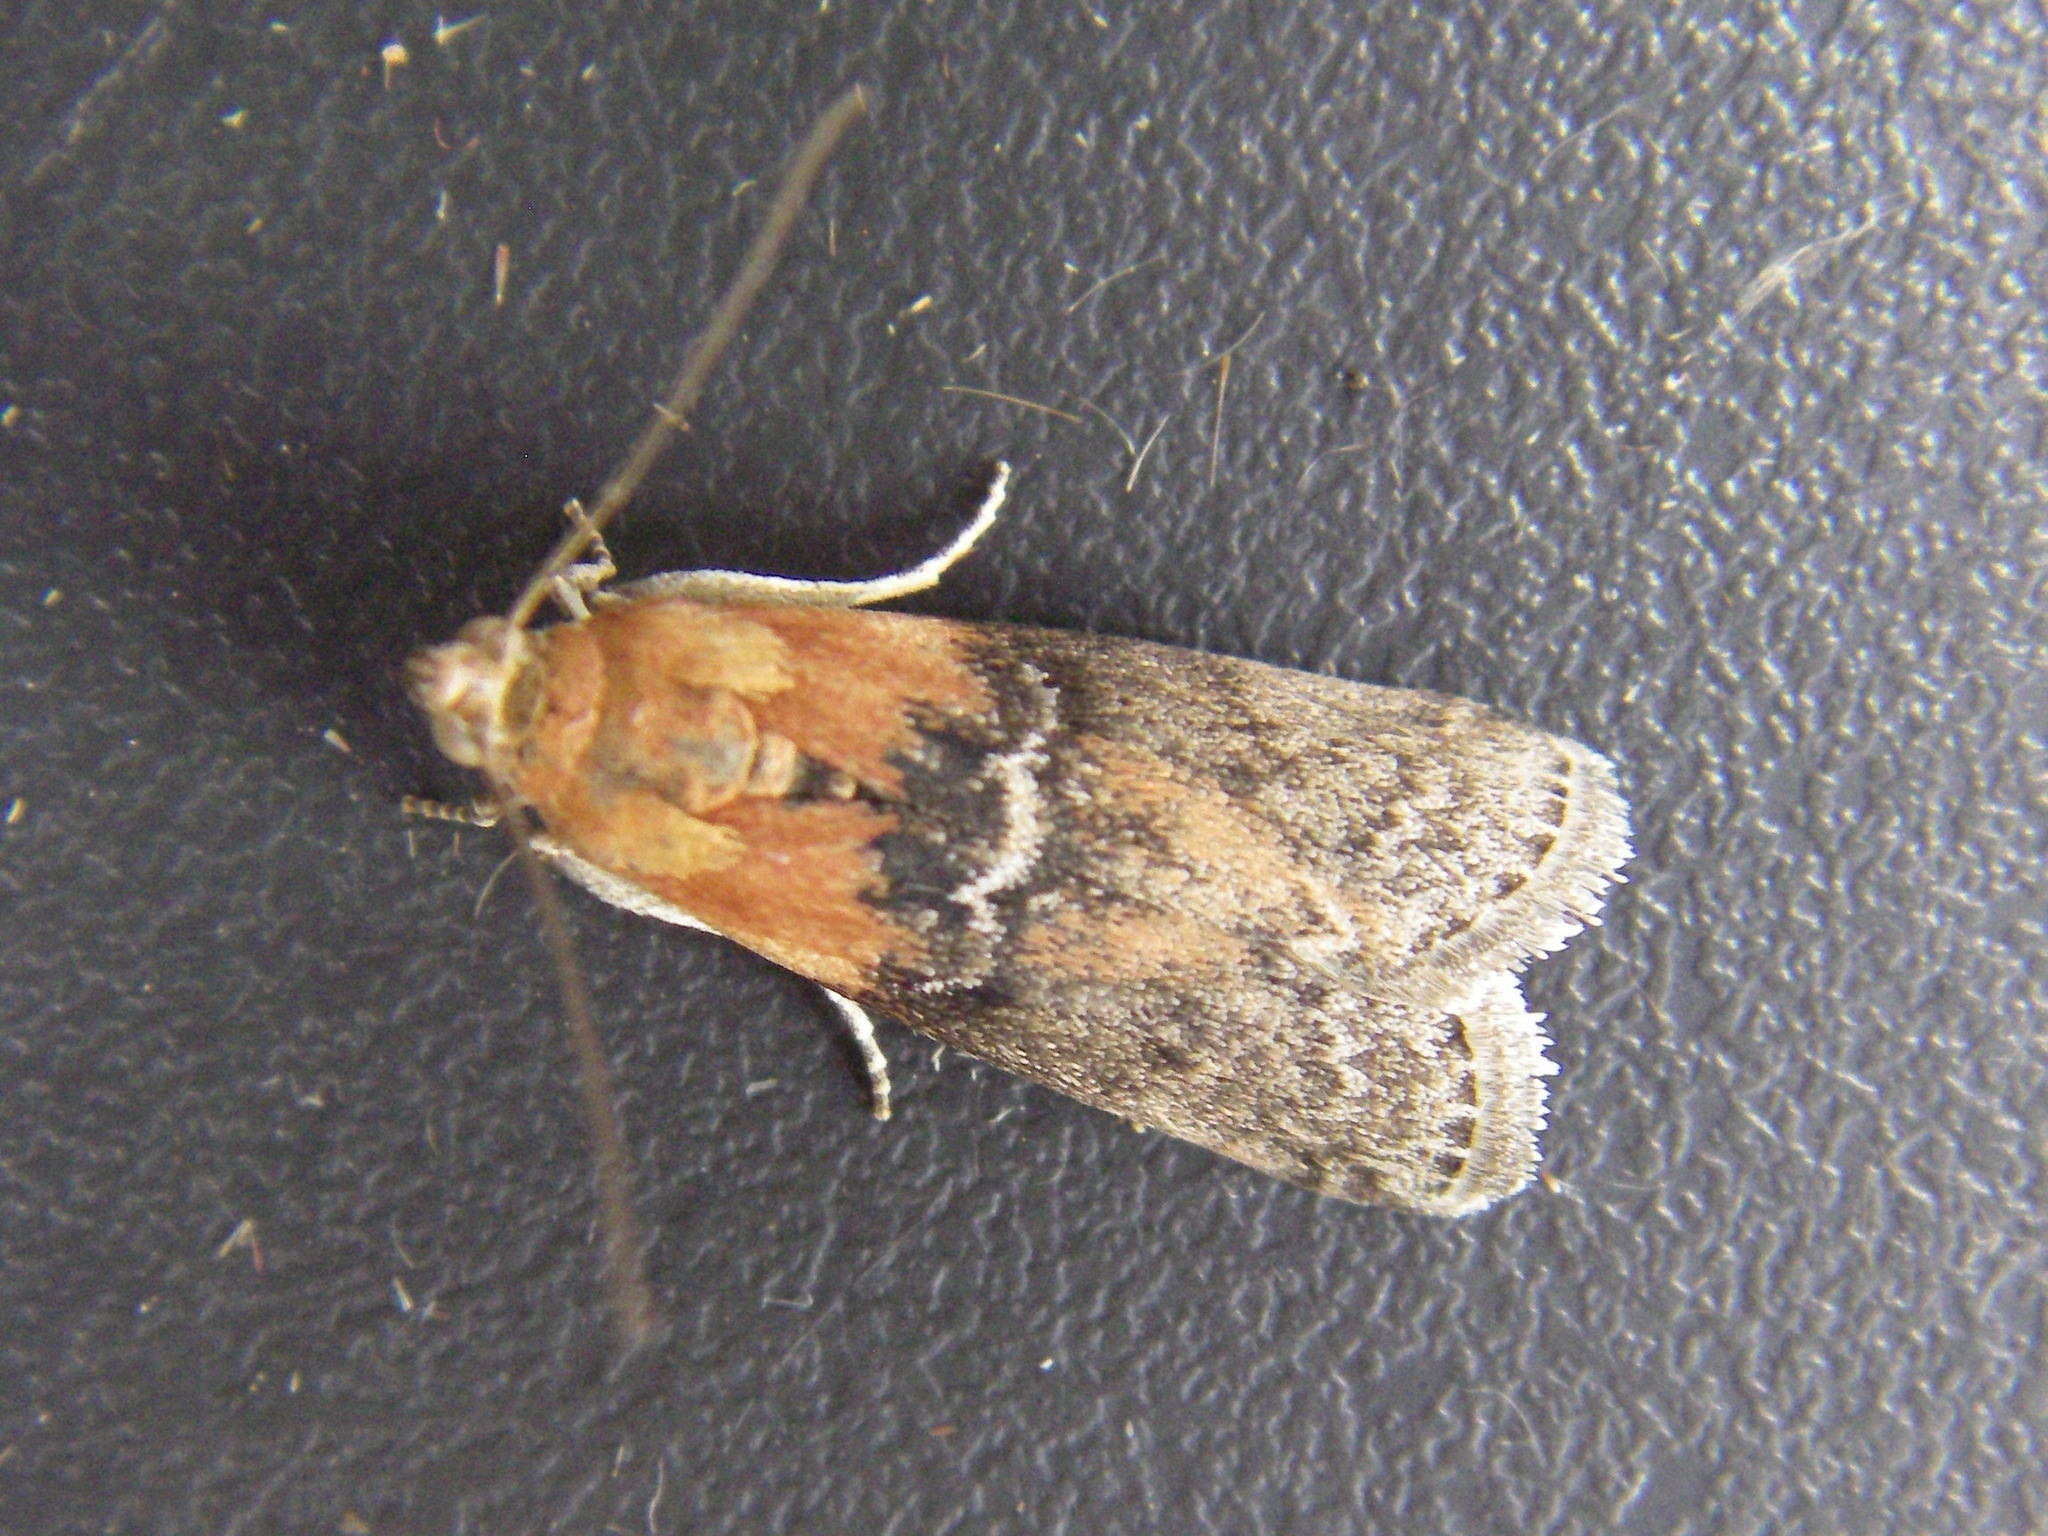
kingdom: Animalia
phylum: Arthropoda
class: Insecta
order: Lepidoptera
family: Pyralidae
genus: Sciota
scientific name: Sciota adelphella
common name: Willow knot-horn
